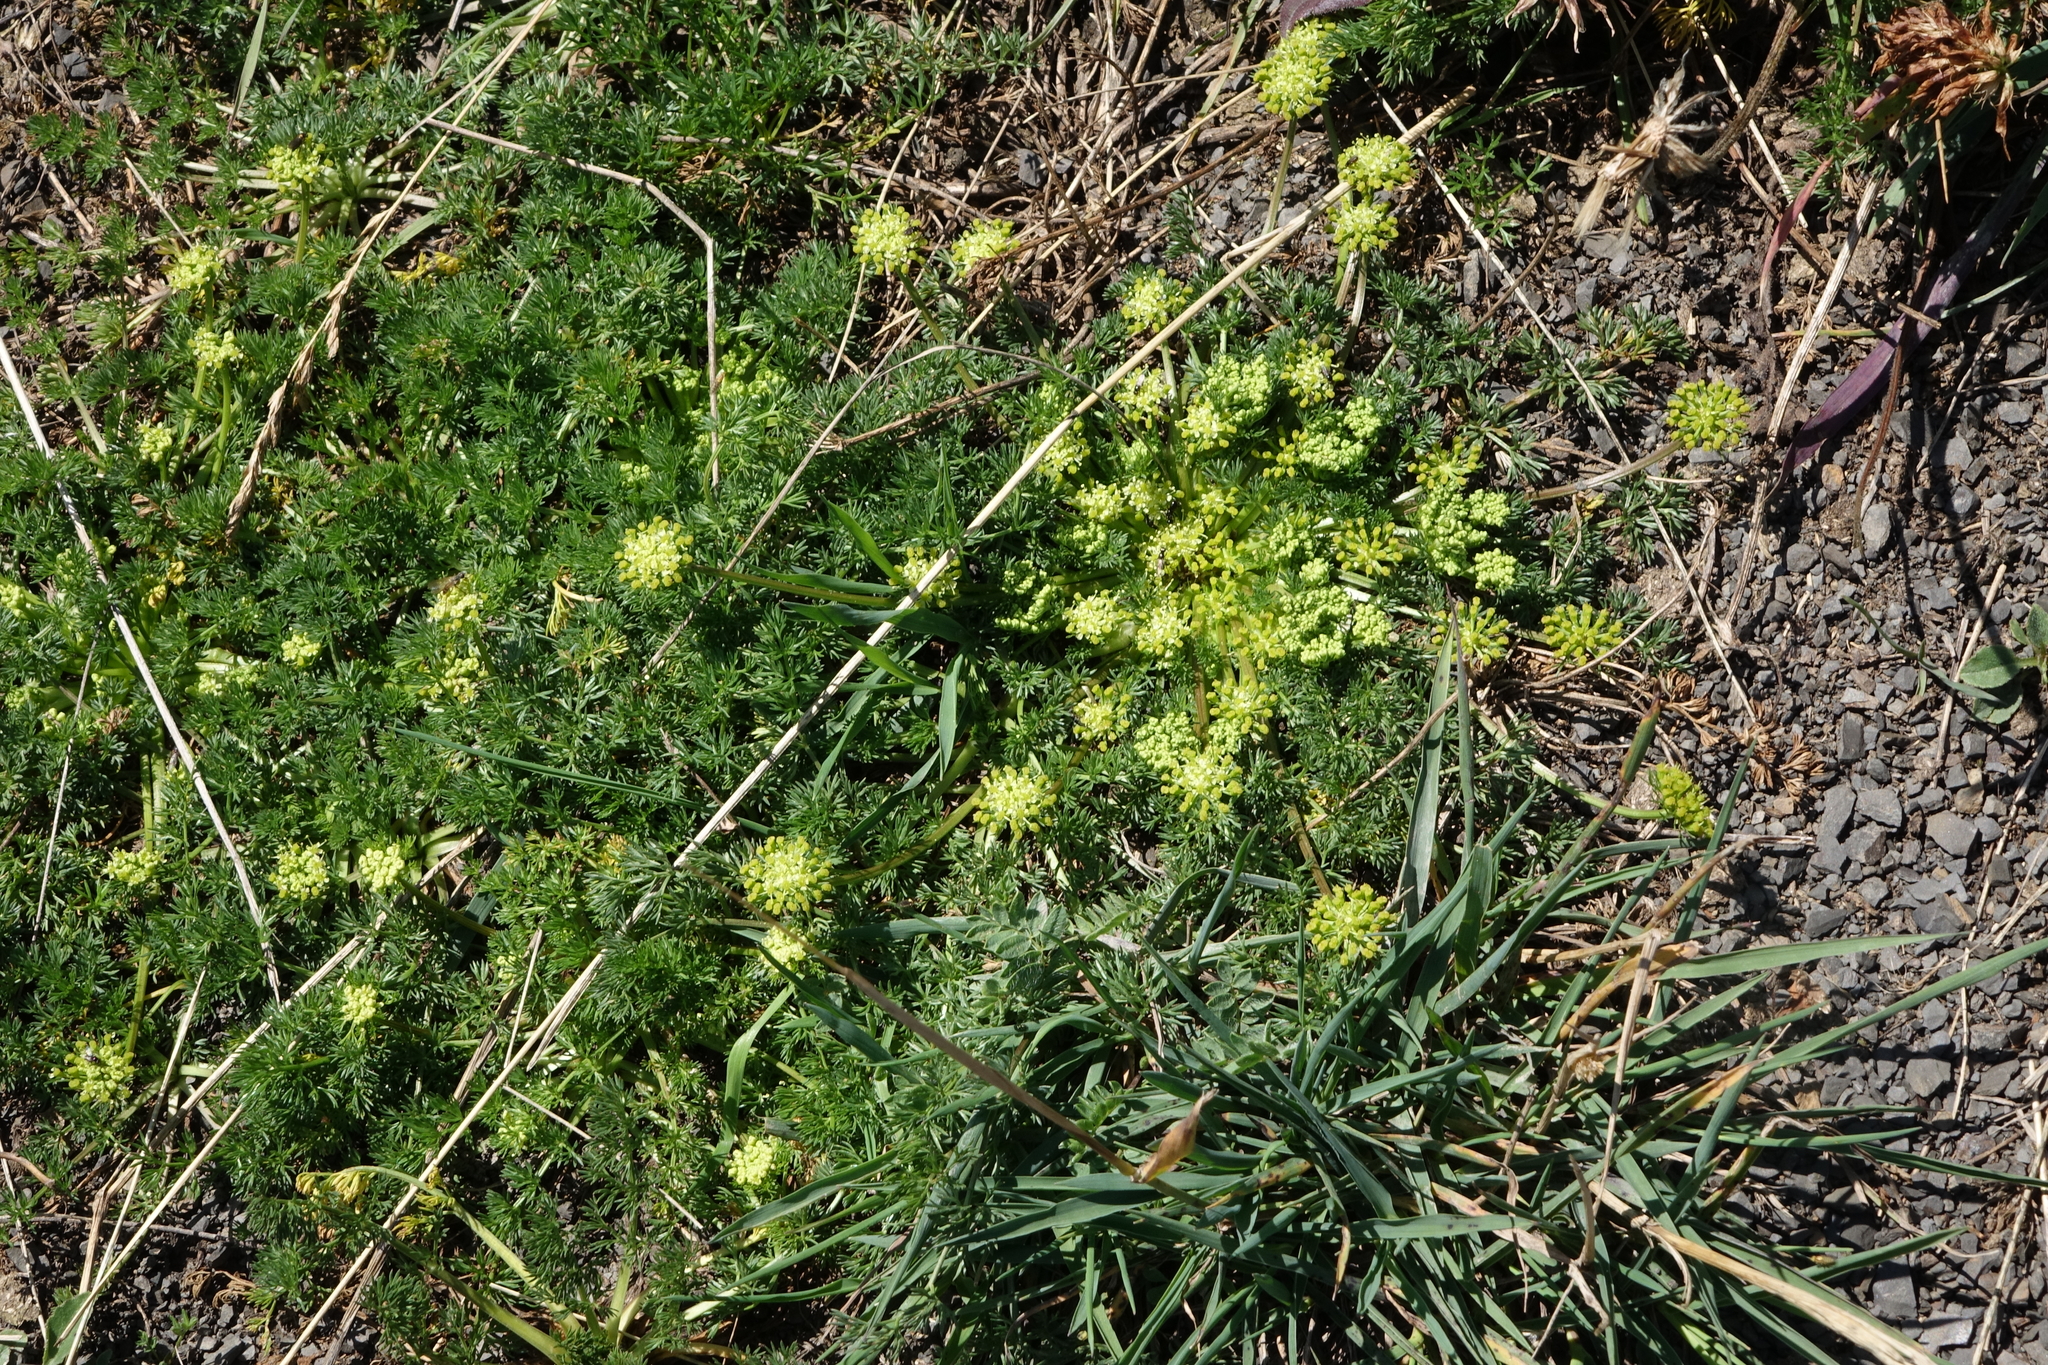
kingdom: Plantae
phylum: Tracheophyta
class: Magnoliopsida
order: Apiales
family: Apiaceae
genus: Chamaesciadium
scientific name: Chamaesciadium acaule
